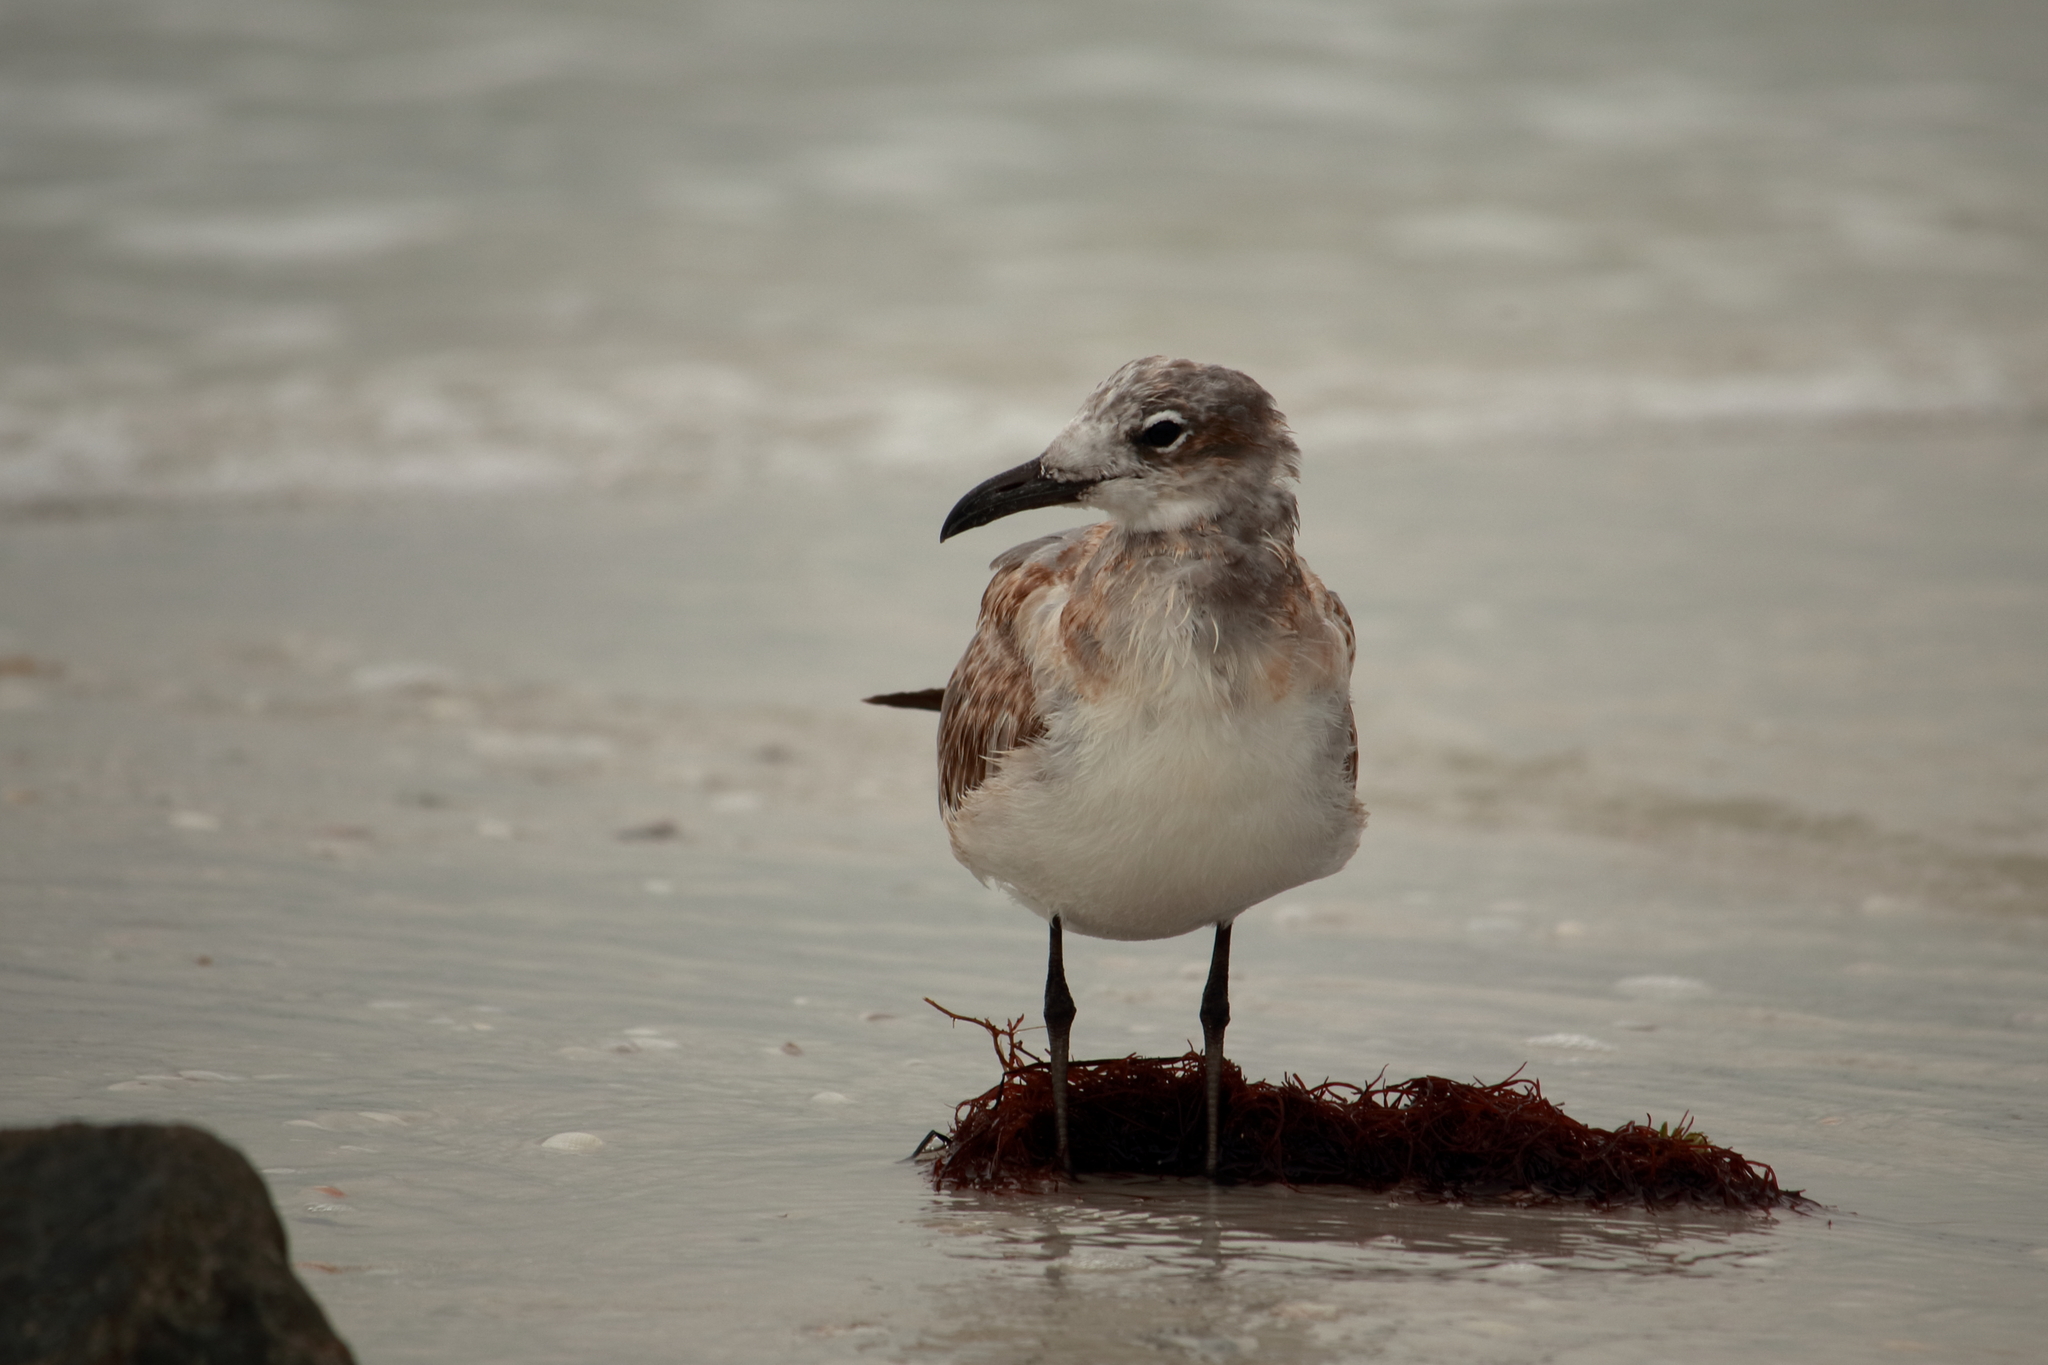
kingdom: Animalia
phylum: Chordata
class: Aves
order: Charadriiformes
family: Laridae
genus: Leucophaeus
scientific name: Leucophaeus atricilla
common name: Laughing gull
